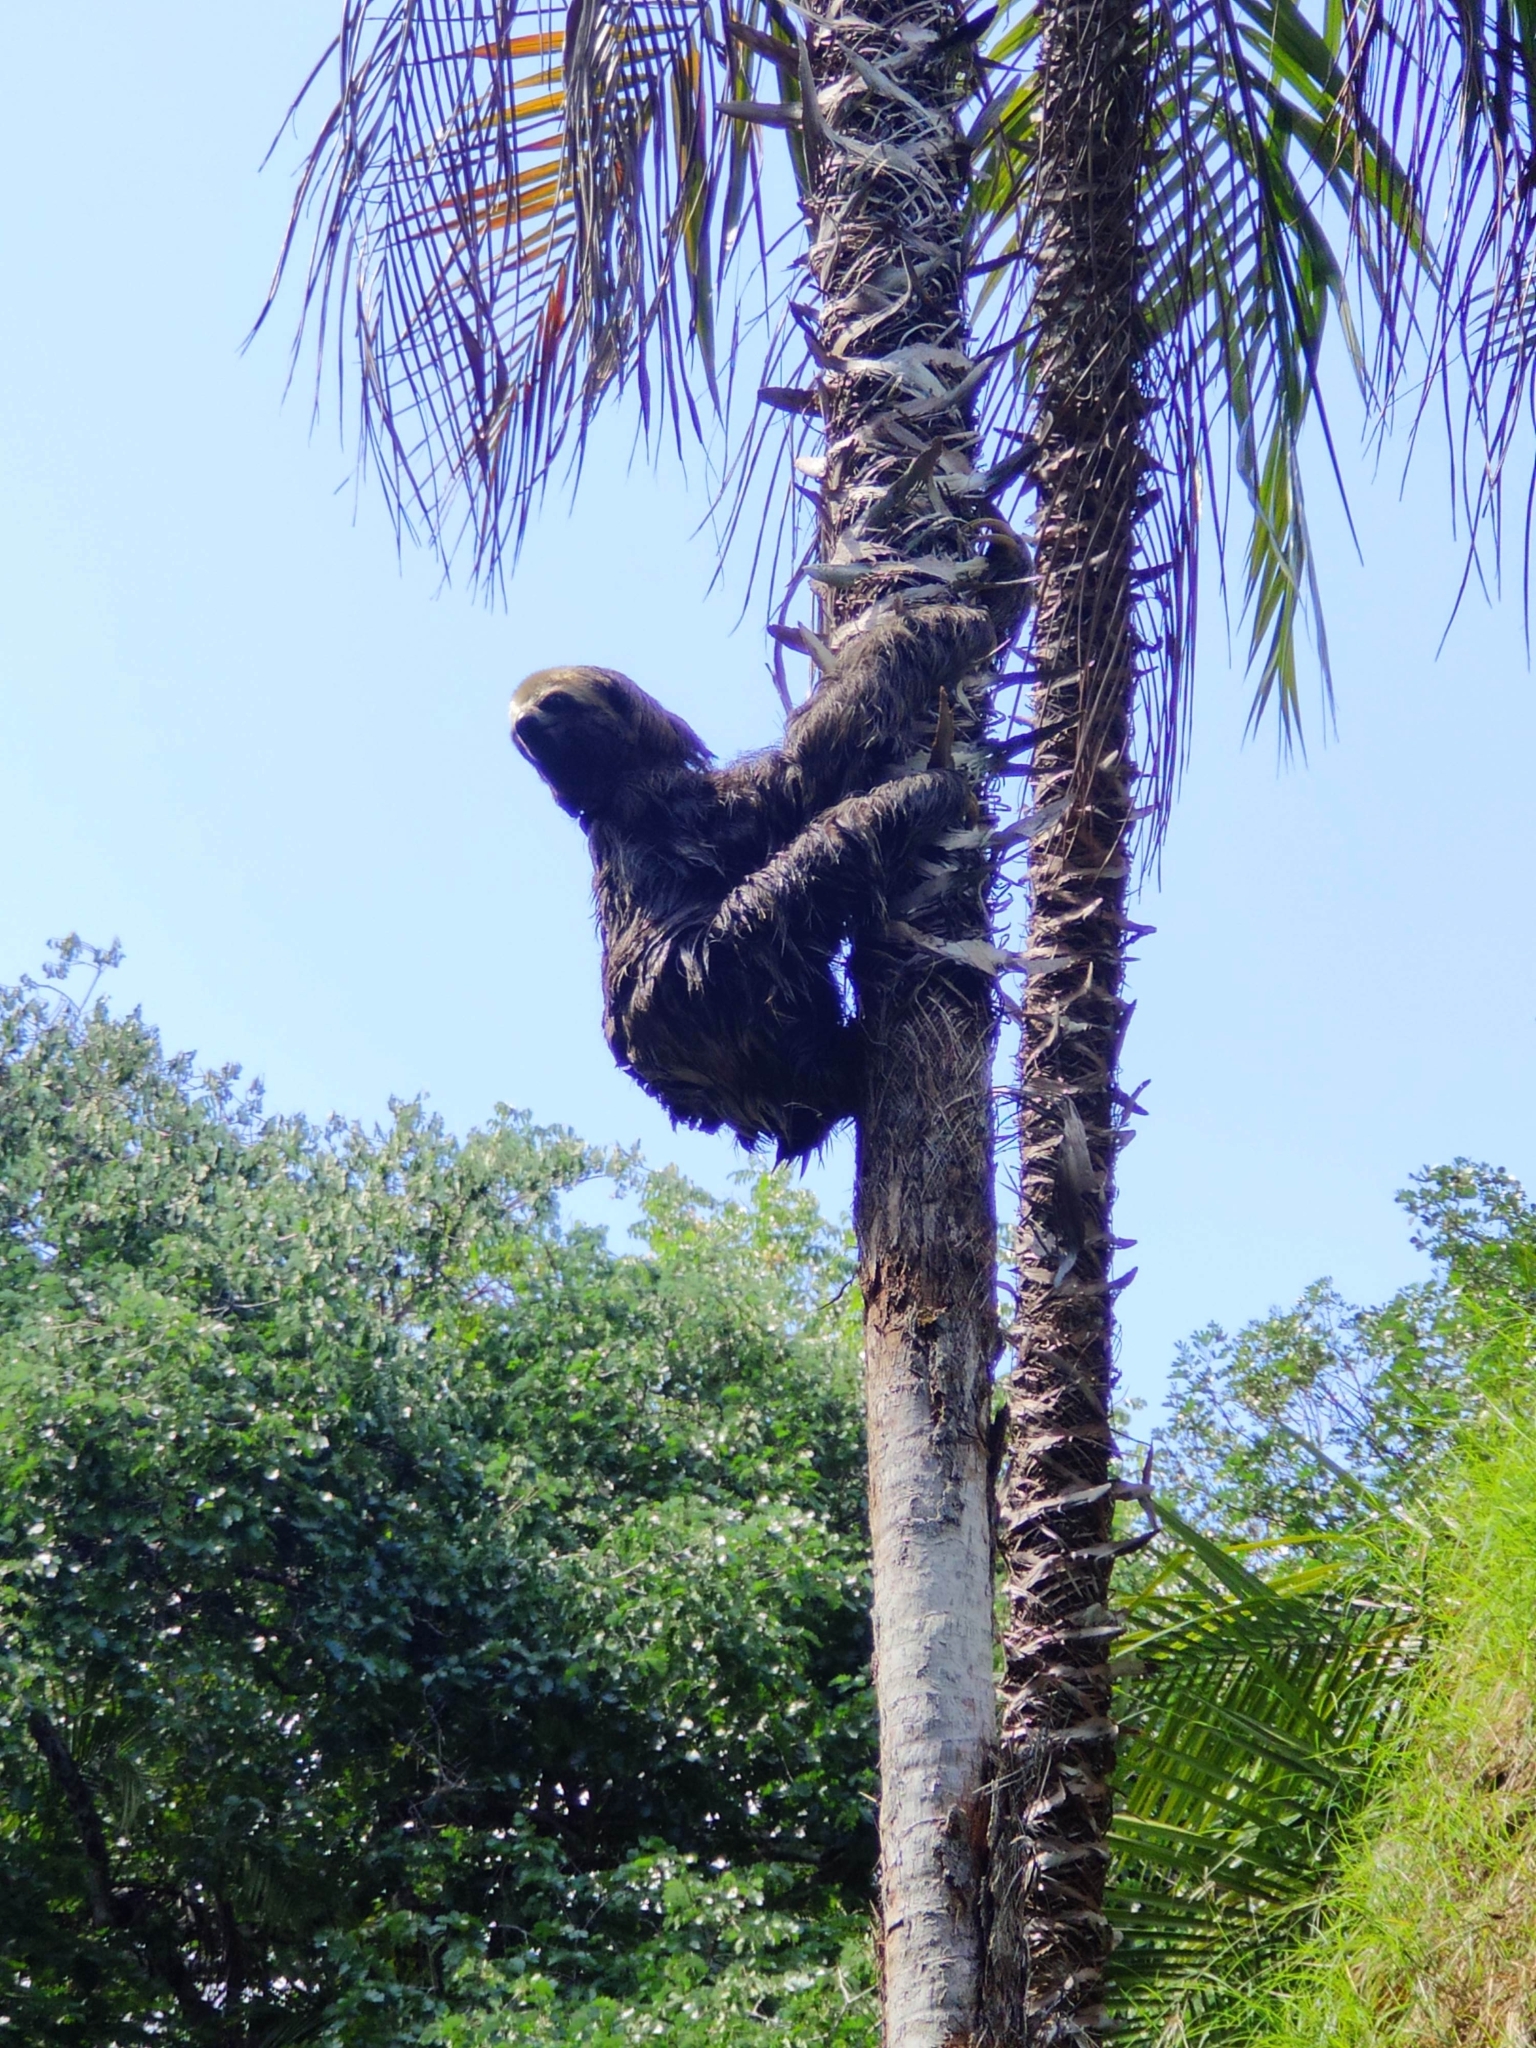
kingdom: Animalia
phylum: Chordata
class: Mammalia
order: Pilosa
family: Bradypodidae
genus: Bradypus
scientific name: Bradypus variegatus
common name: Brown-throated three-toed sloth
